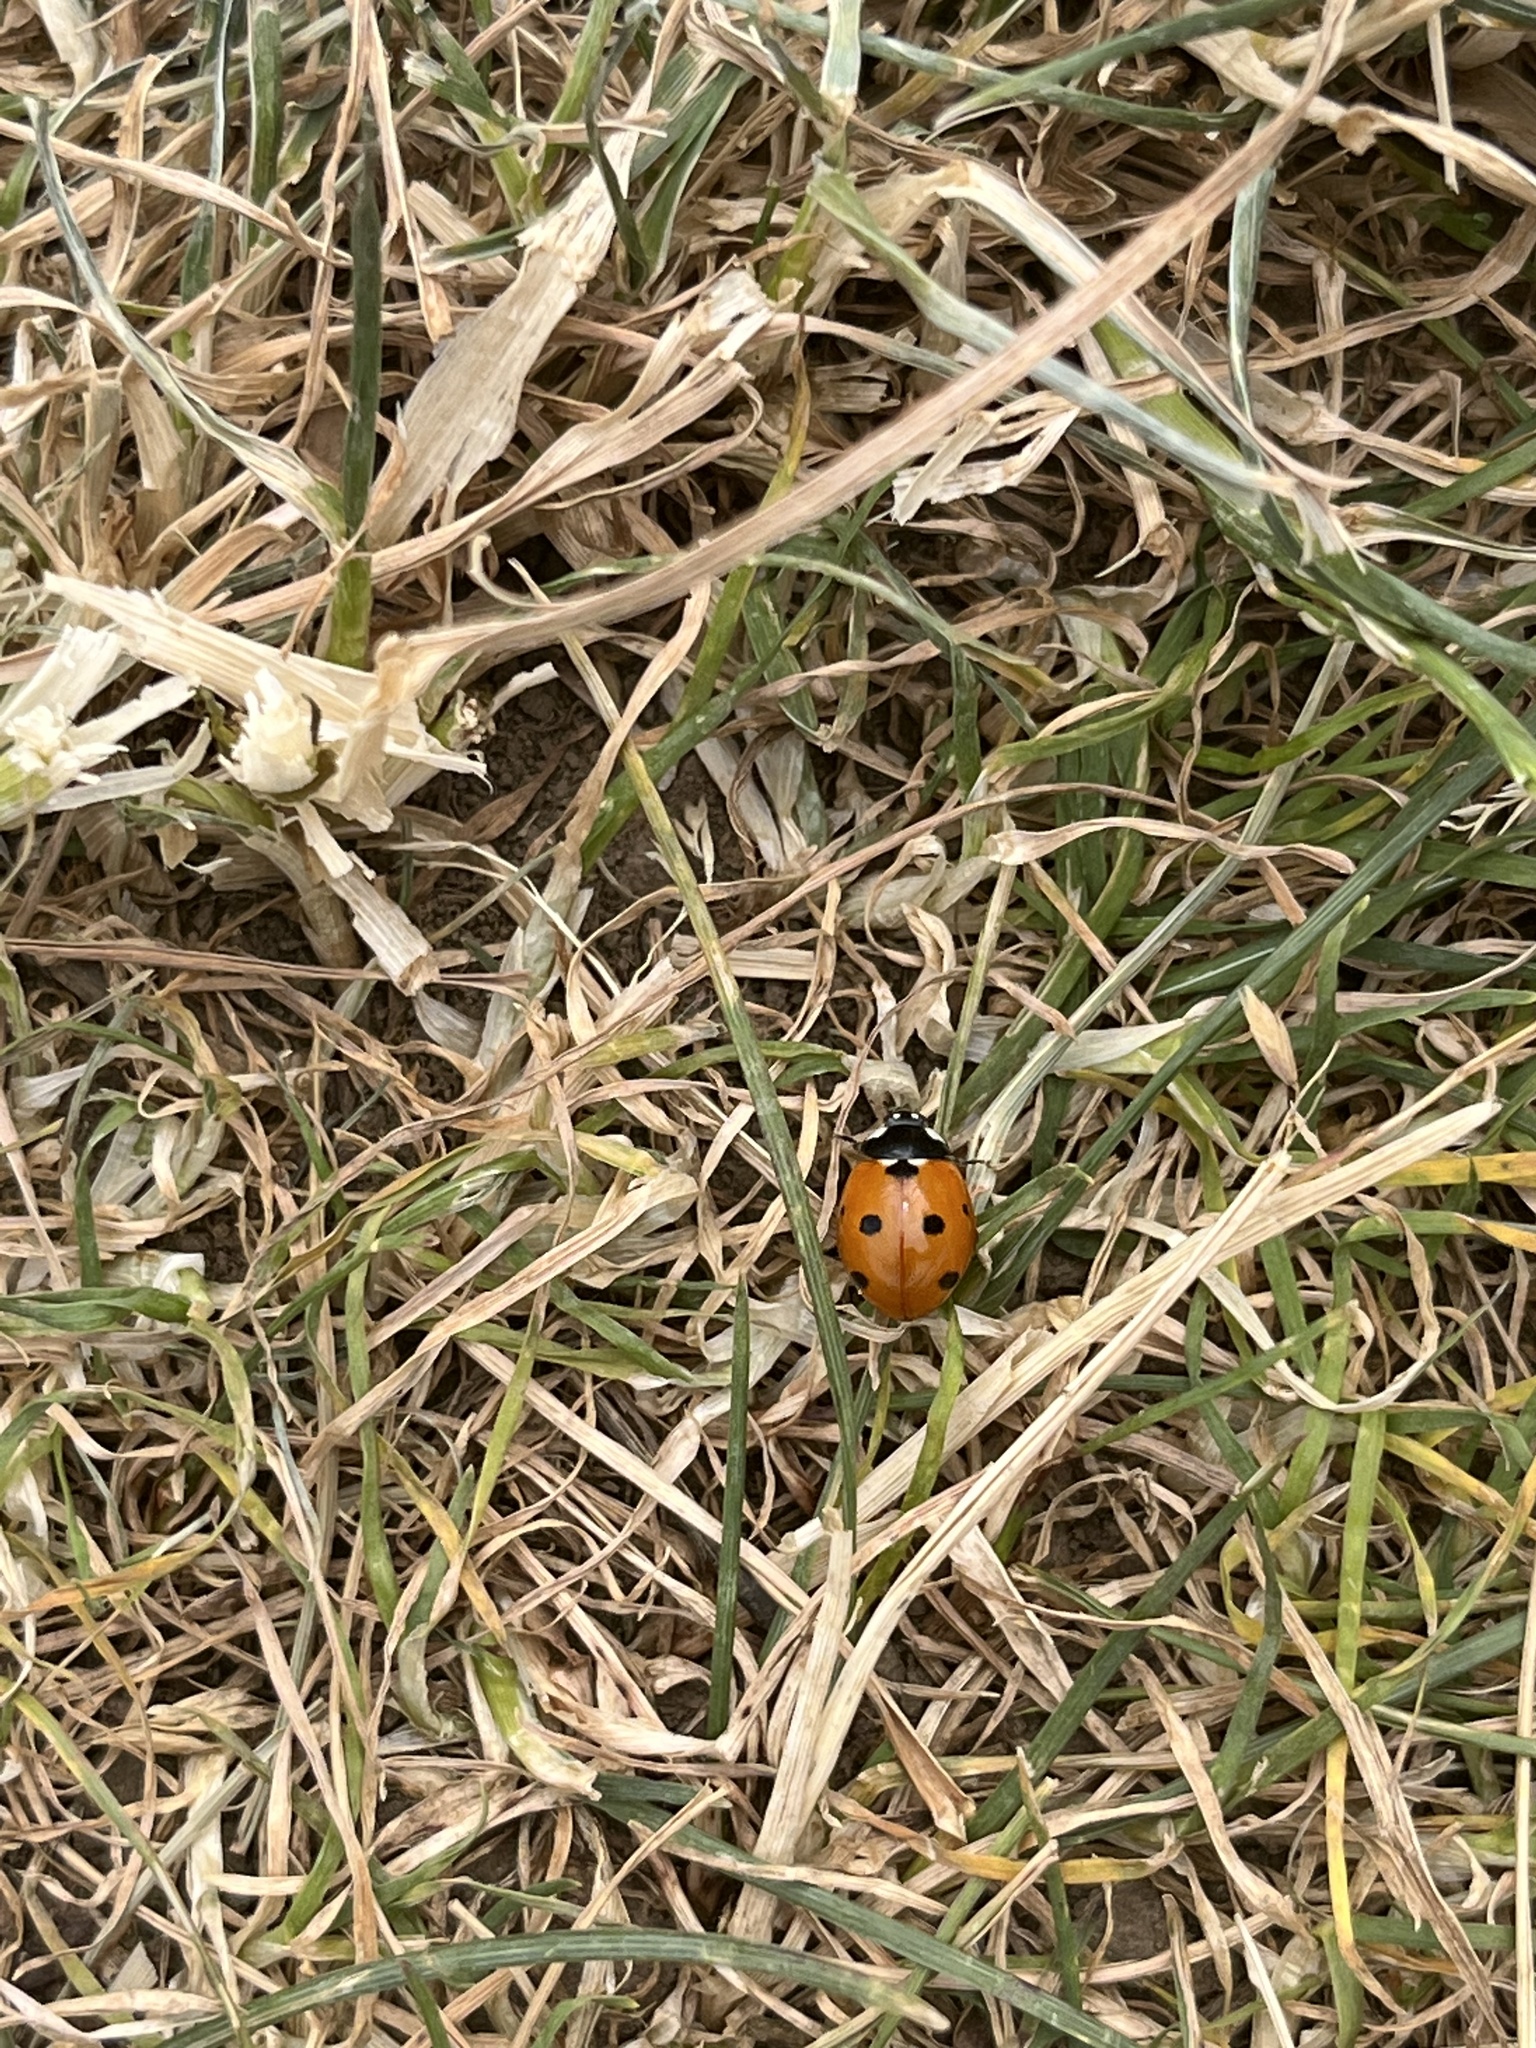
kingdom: Animalia
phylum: Arthropoda
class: Insecta
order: Coleoptera
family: Coccinellidae
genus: Coccinella
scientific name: Coccinella septempunctata
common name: Sevenspotted lady beetle
